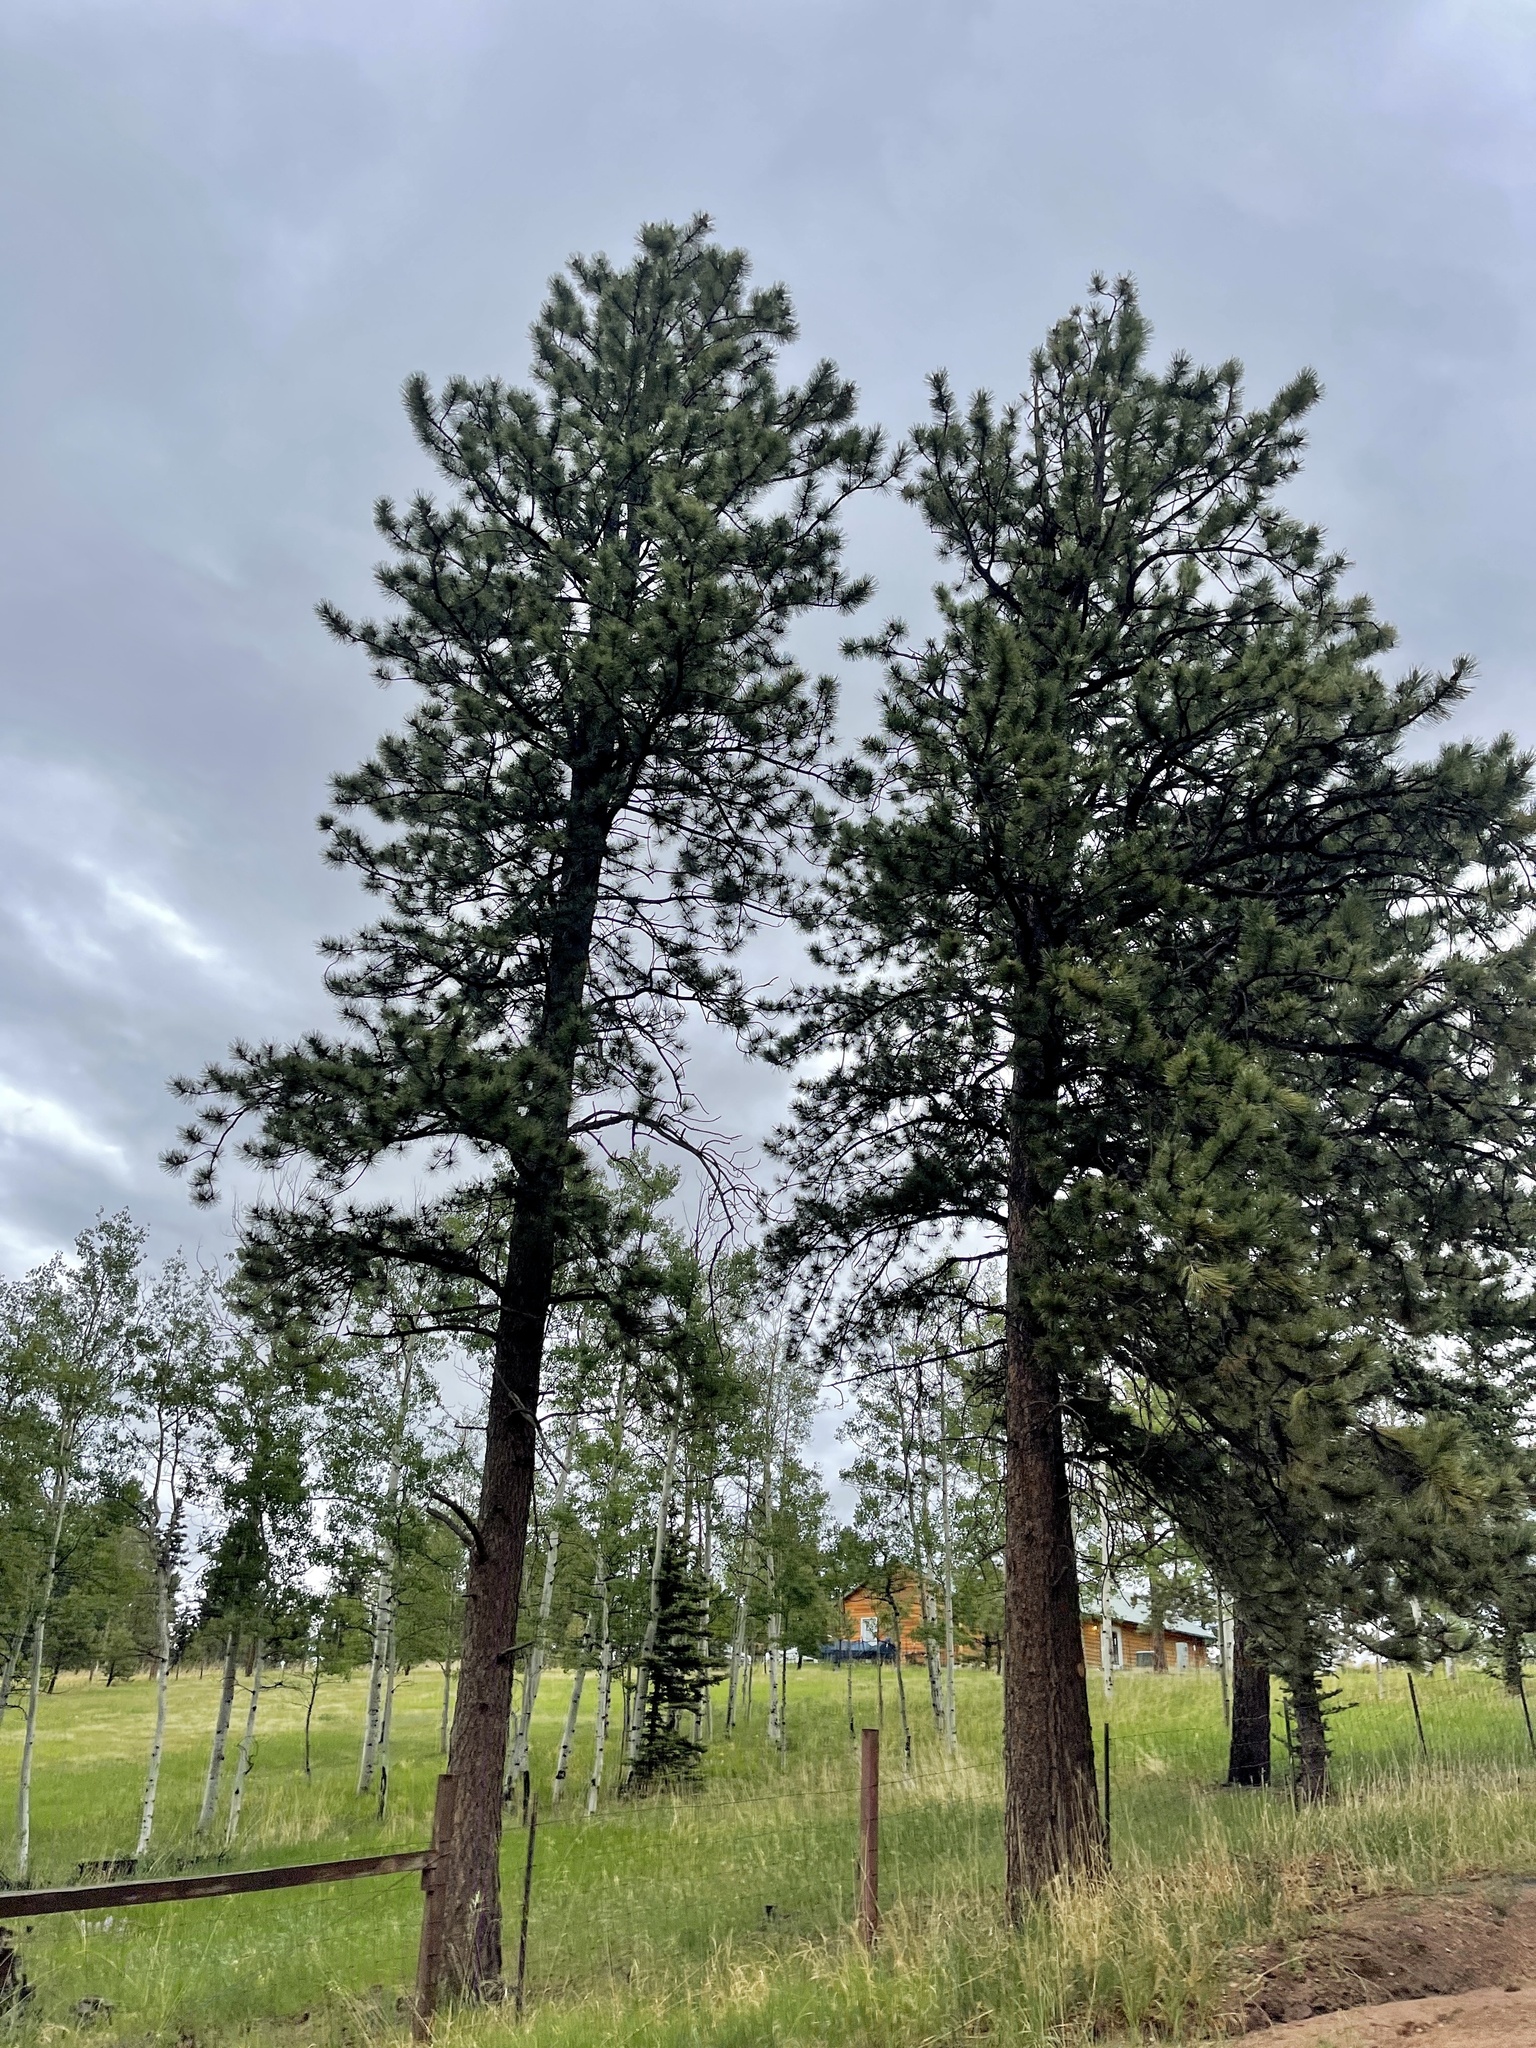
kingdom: Plantae
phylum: Tracheophyta
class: Pinopsida
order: Pinales
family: Pinaceae
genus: Pinus
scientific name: Pinus ponderosa
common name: Western yellow-pine
